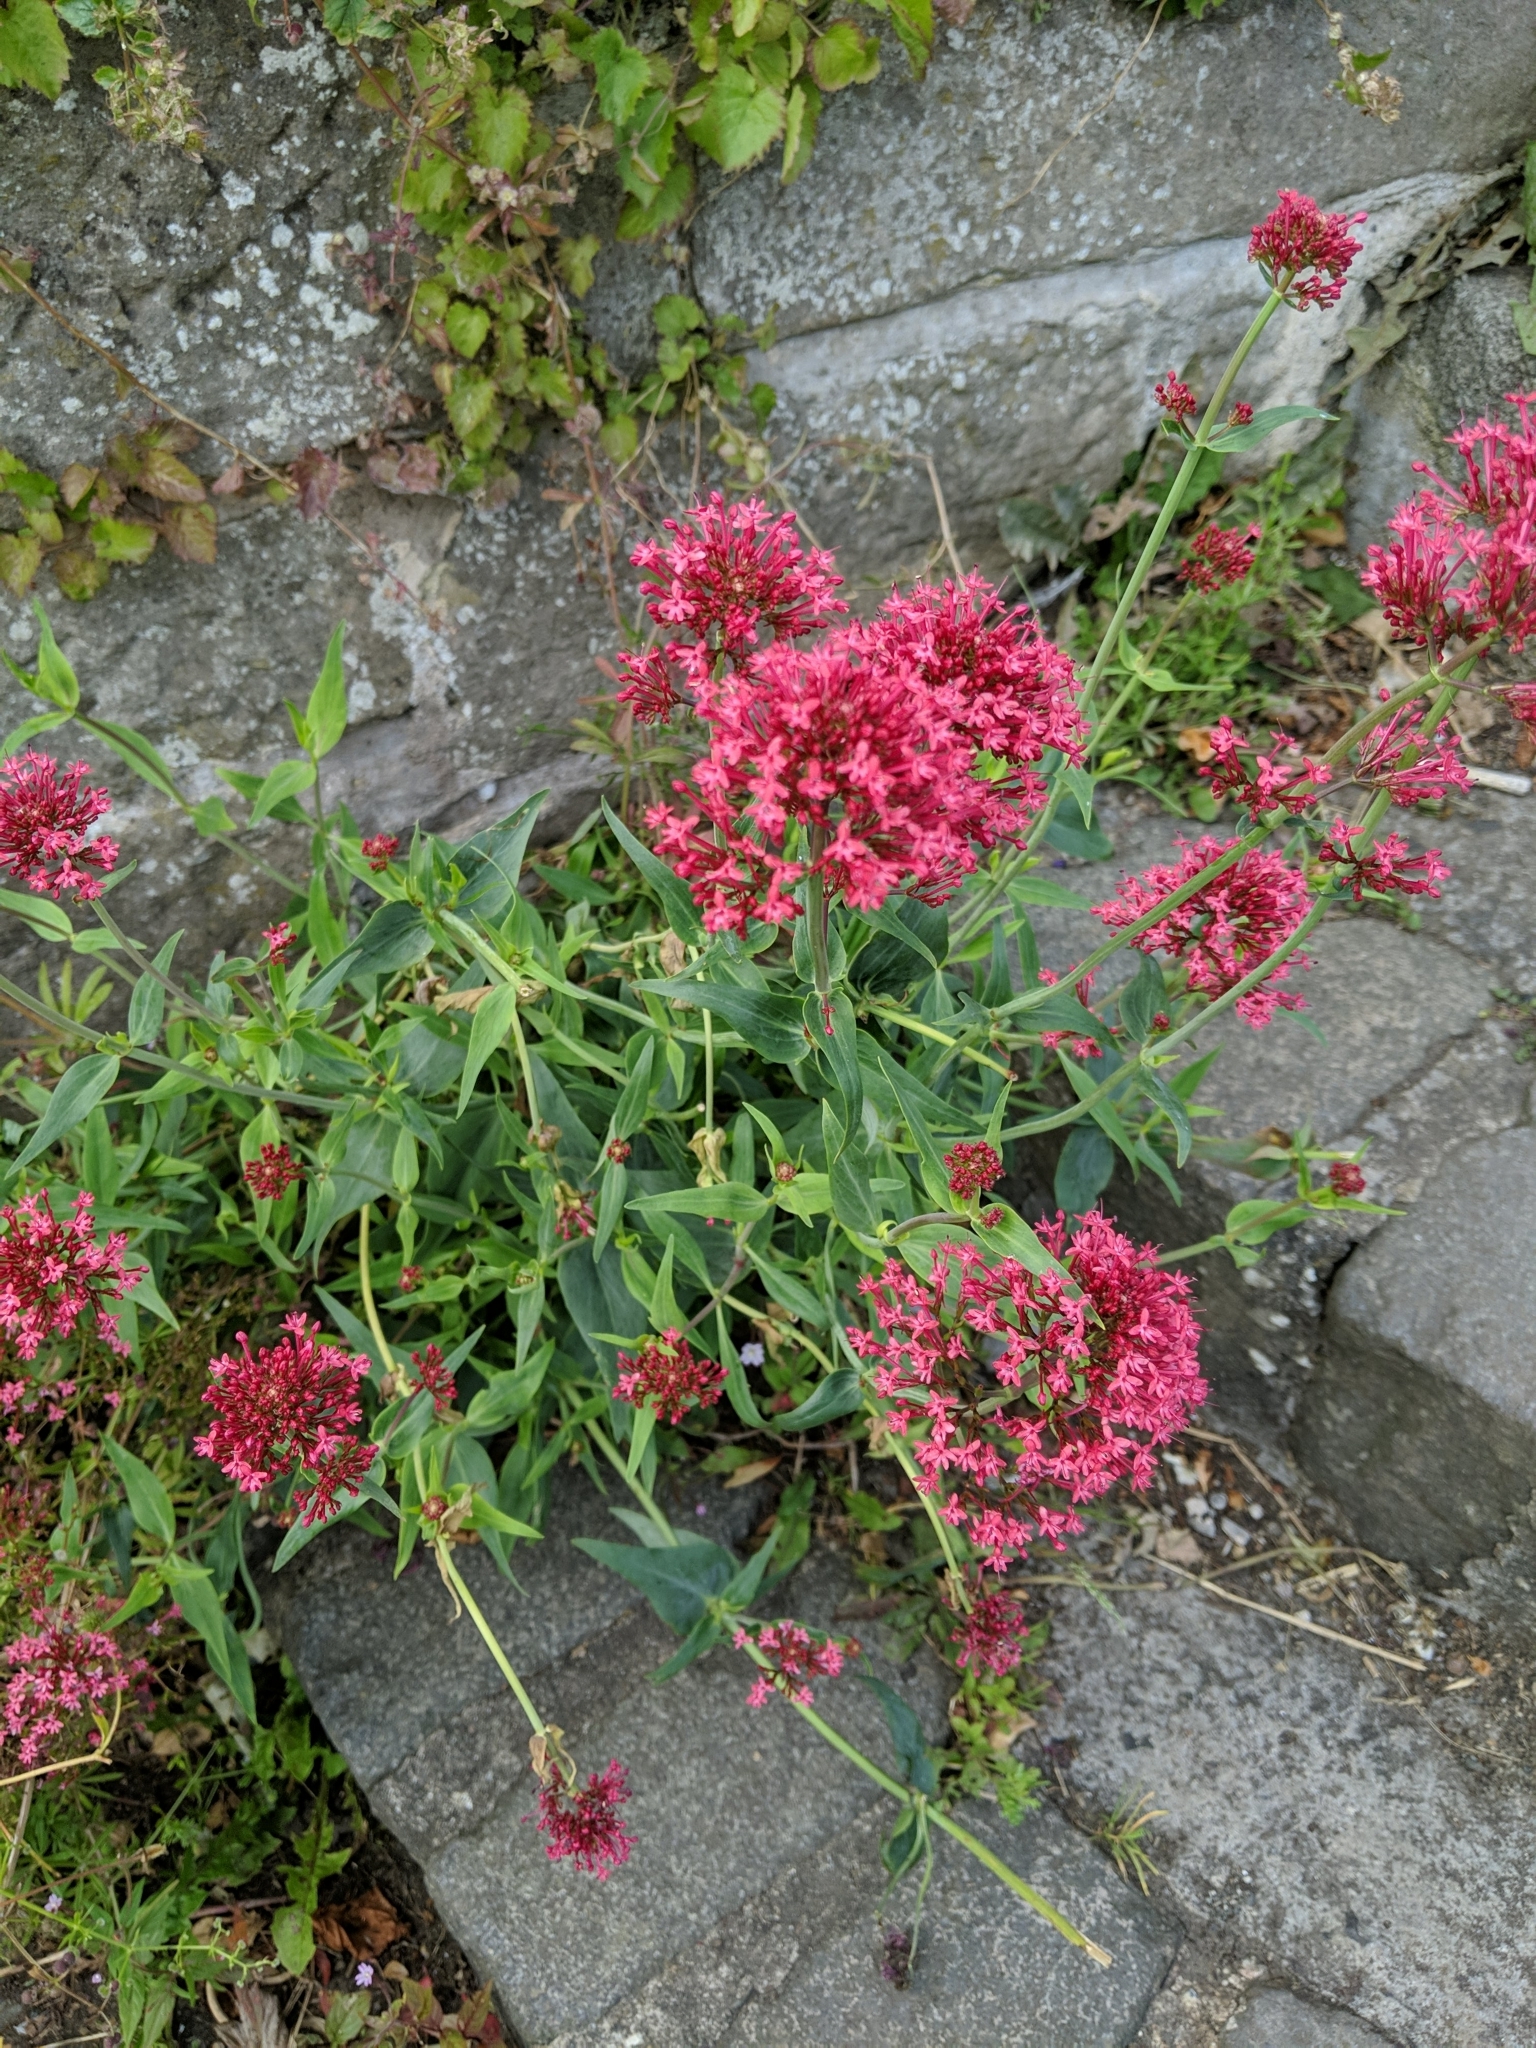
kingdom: Plantae
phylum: Tracheophyta
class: Magnoliopsida
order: Dipsacales
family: Caprifoliaceae
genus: Centranthus
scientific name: Centranthus ruber
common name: Red valerian
